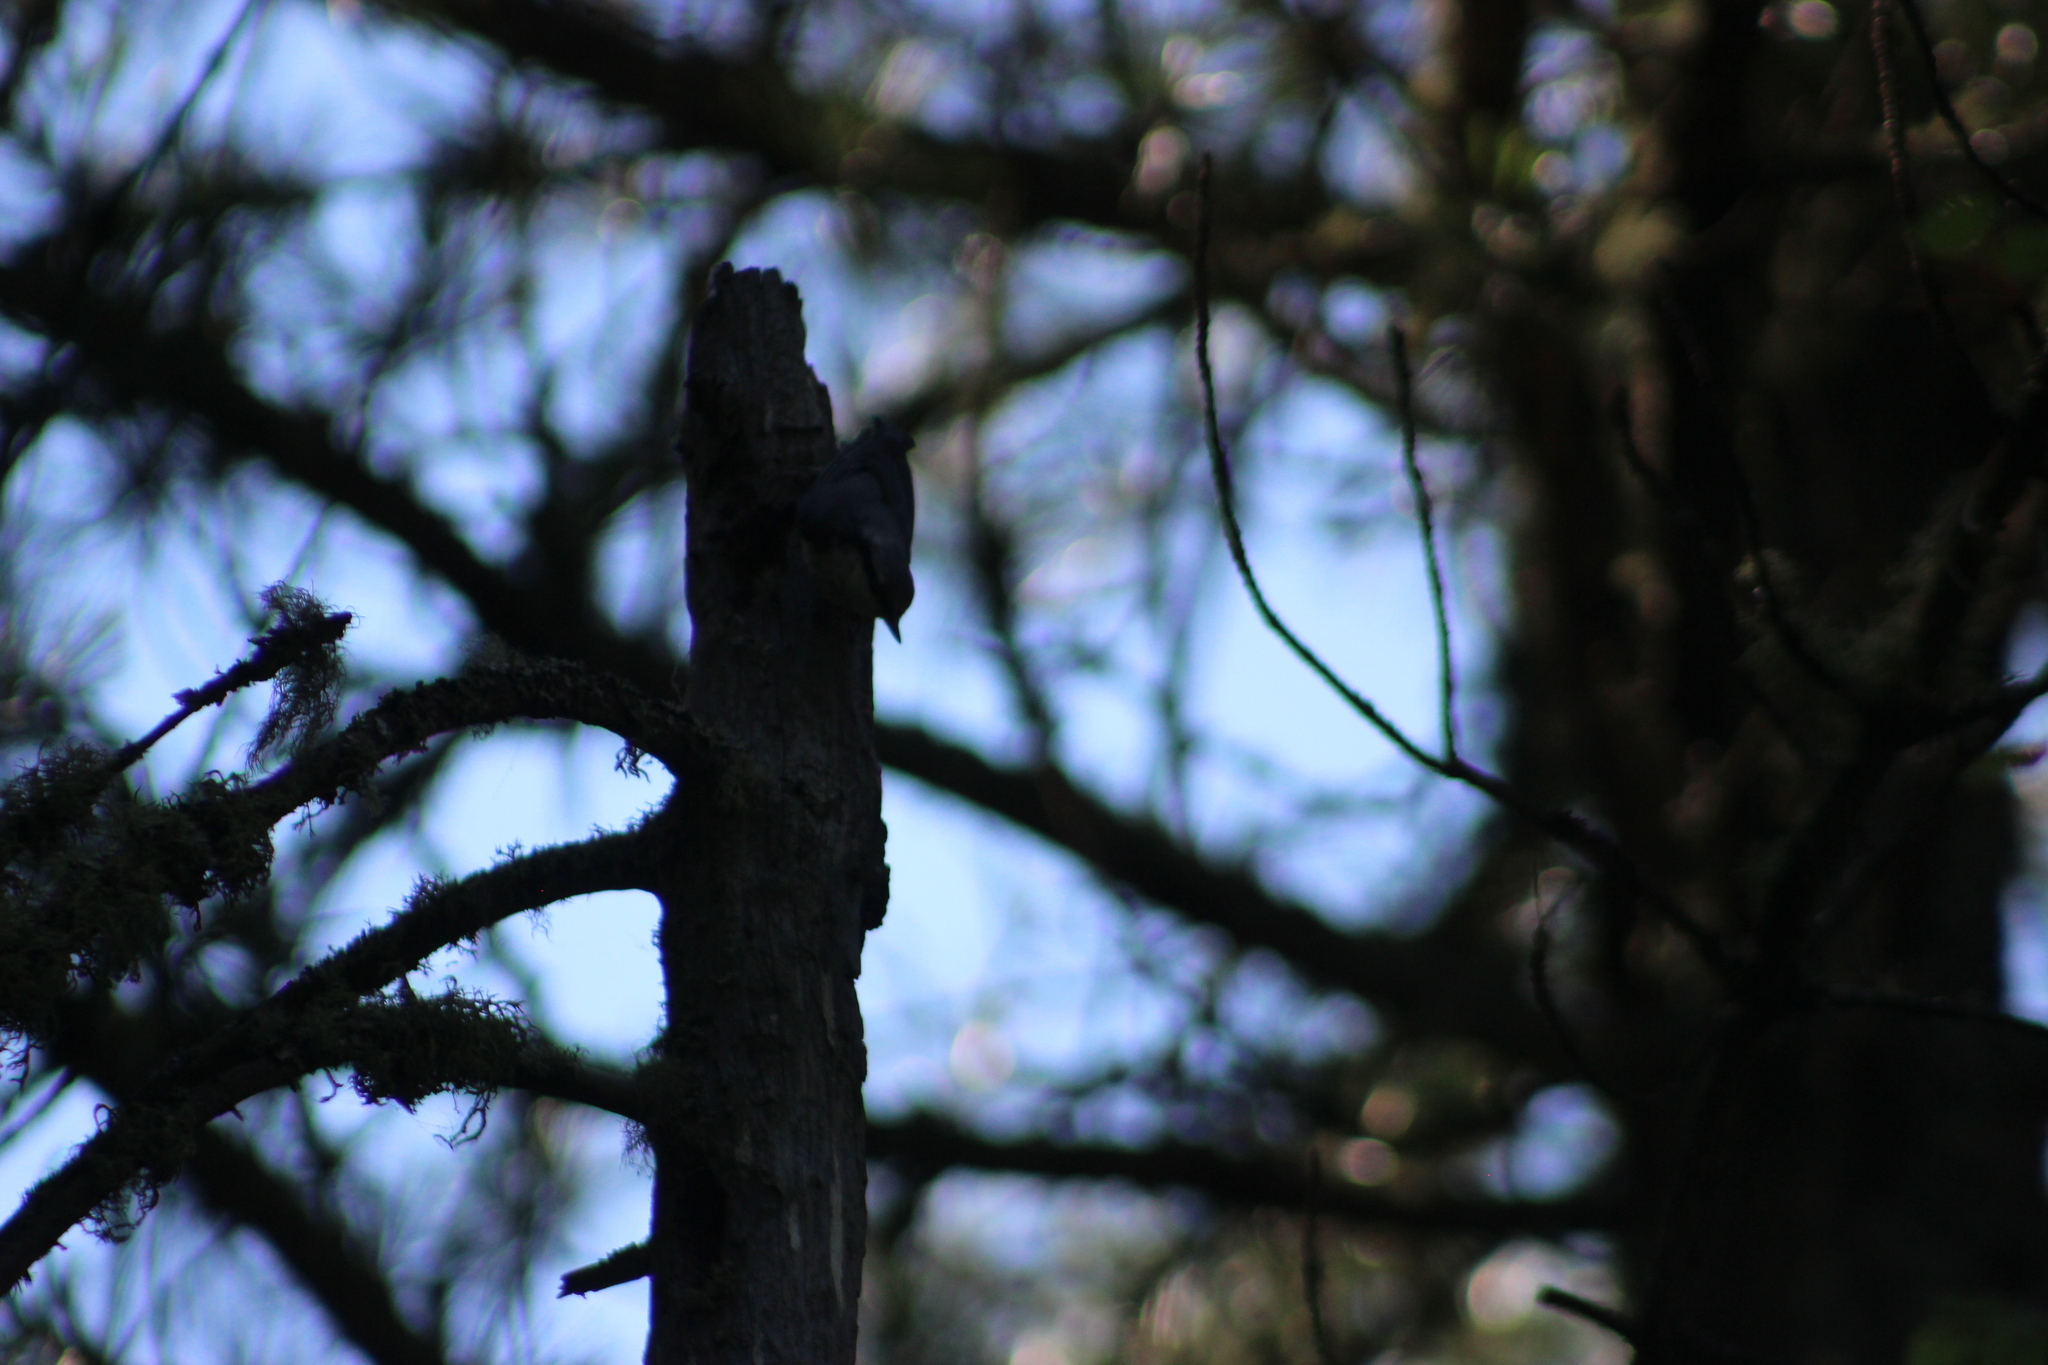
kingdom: Animalia
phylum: Chordata
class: Aves
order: Passeriformes
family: Sittidae
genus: Sitta
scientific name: Sitta europaea
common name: Eurasian nuthatch
